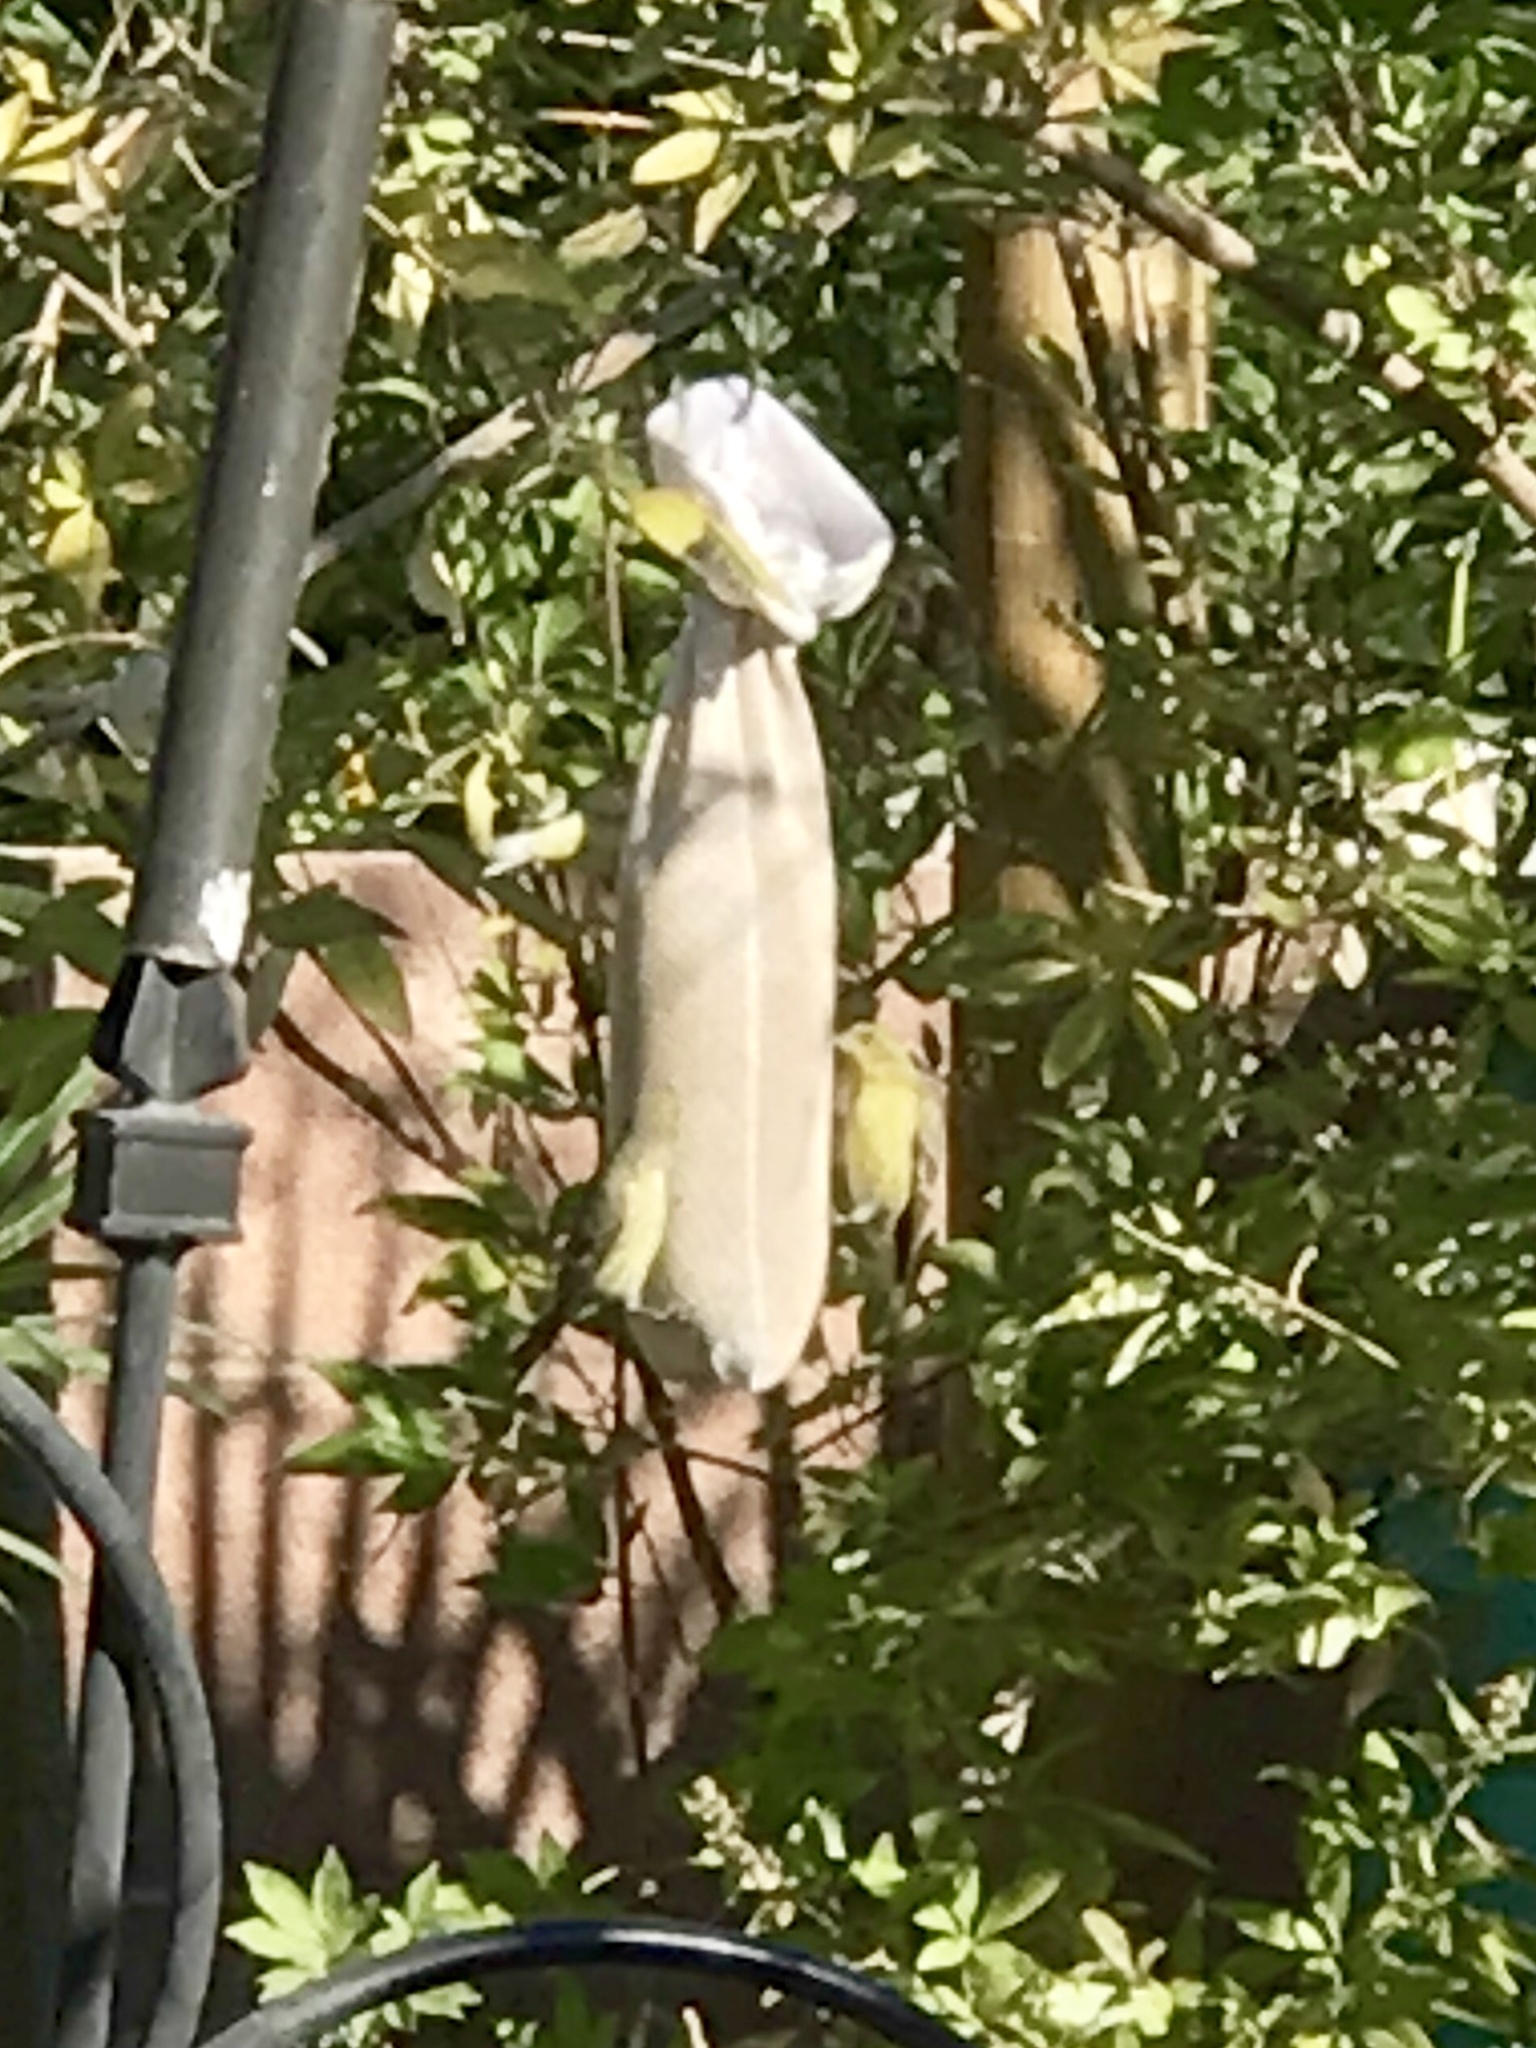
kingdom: Animalia
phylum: Chordata
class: Aves
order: Passeriformes
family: Fringillidae
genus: Spinus
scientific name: Spinus psaltria
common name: Lesser goldfinch
